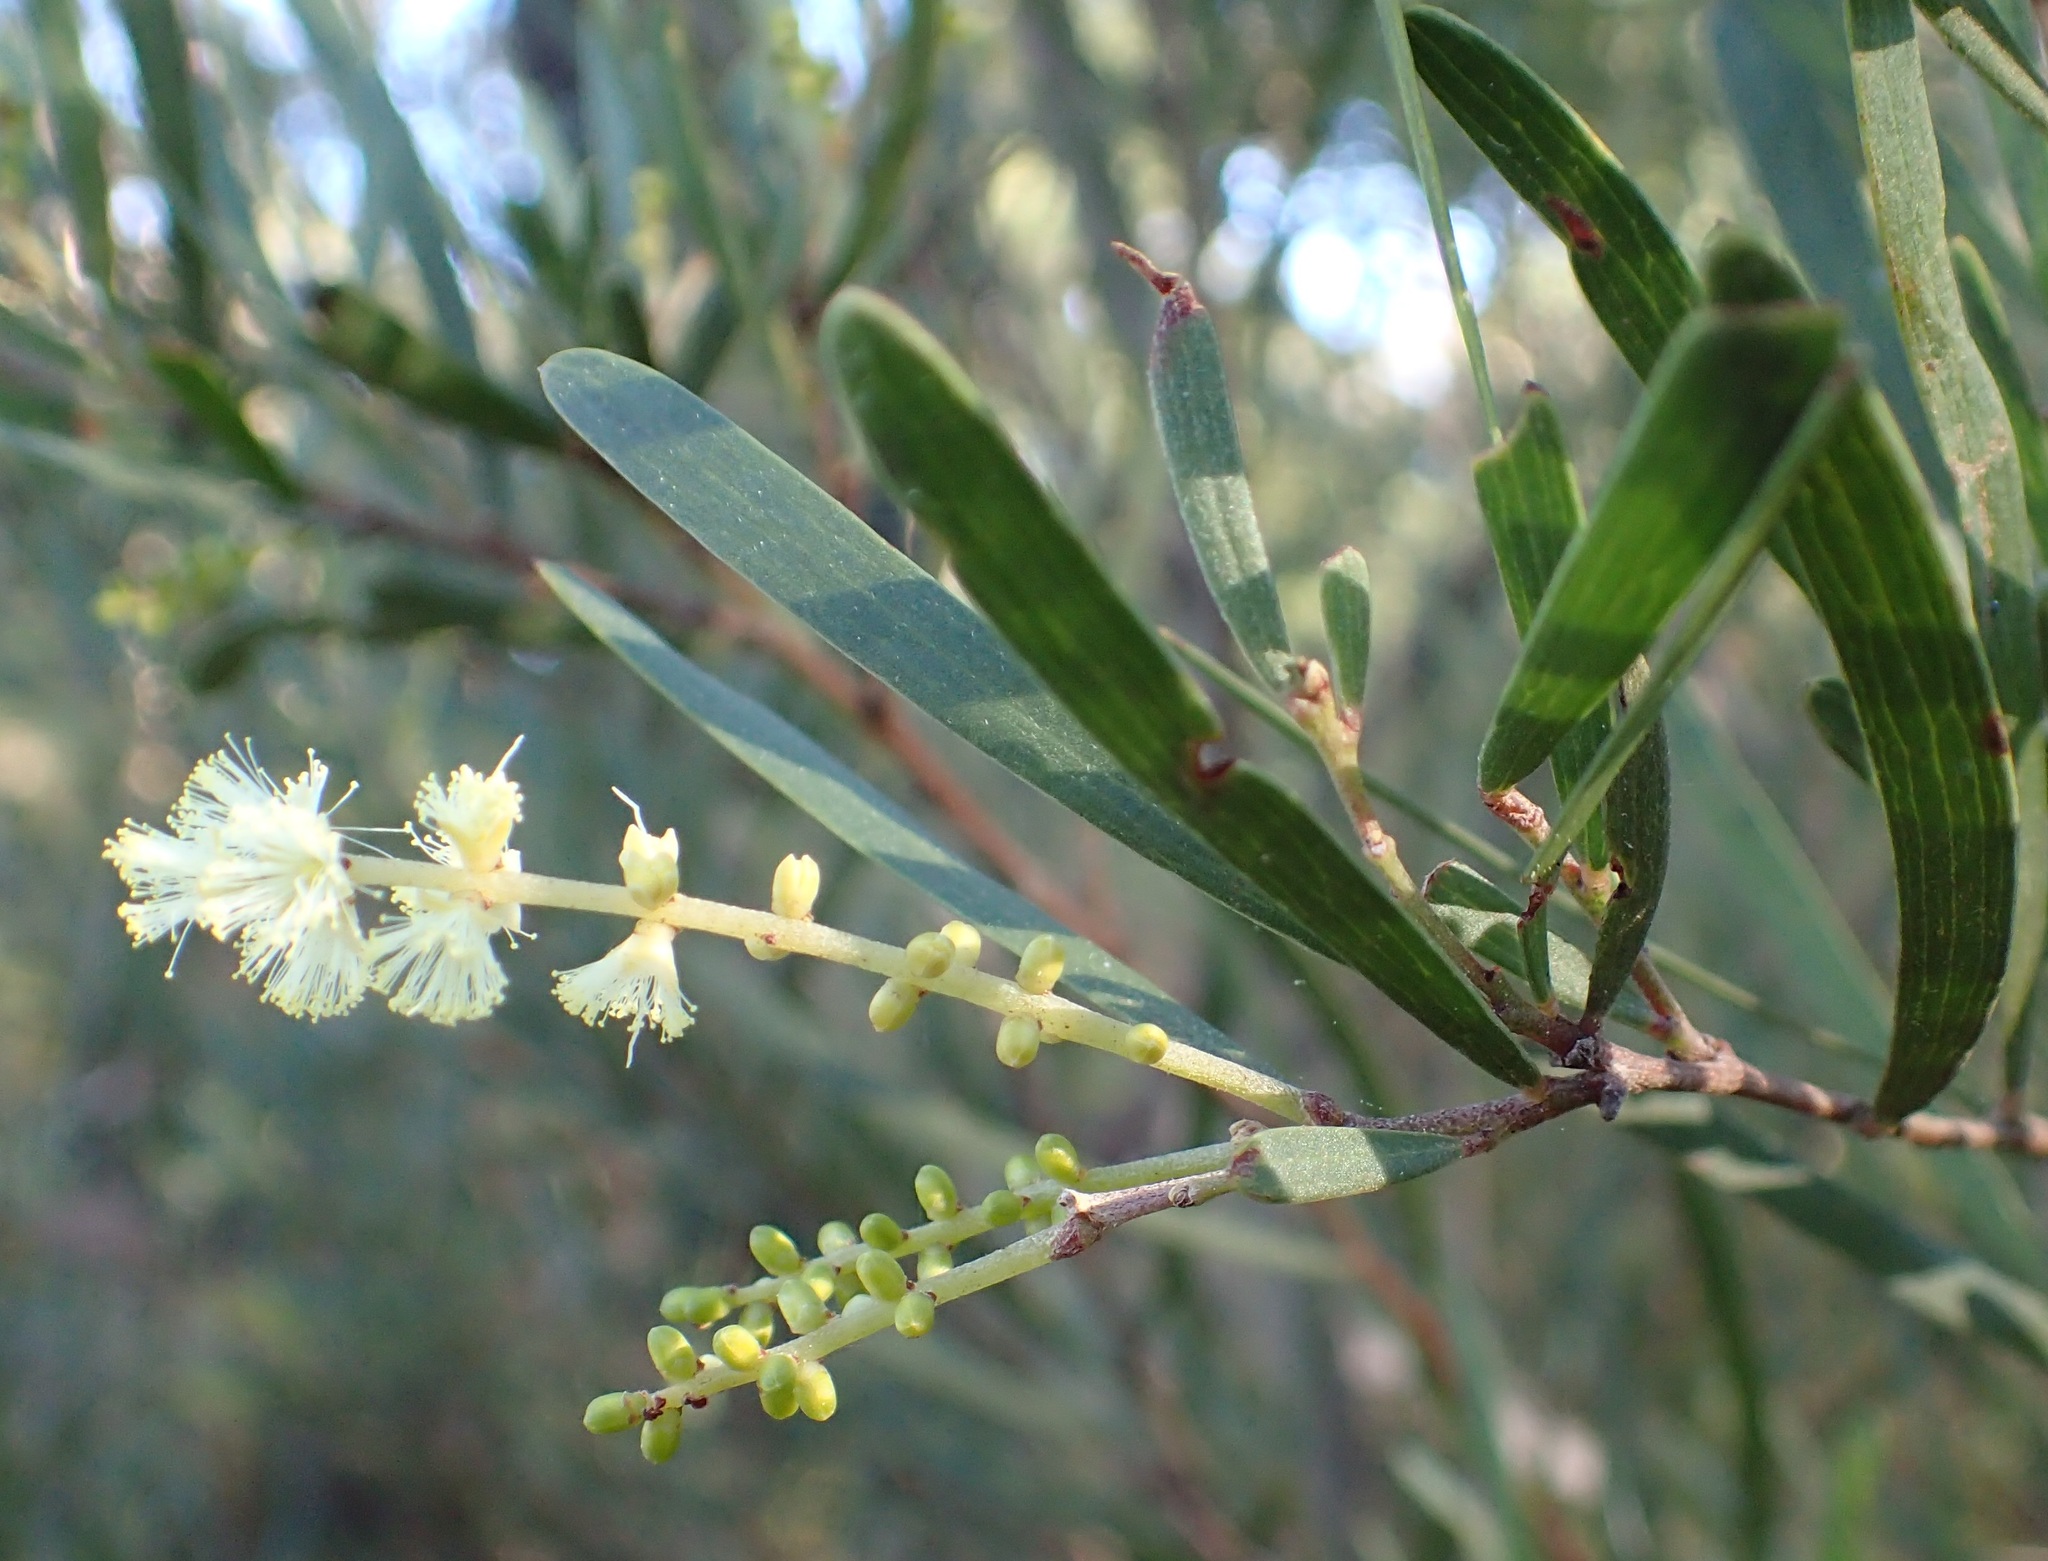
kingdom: Plantae
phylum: Tracheophyta
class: Magnoliopsida
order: Fabales
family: Fabaceae
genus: Acacia
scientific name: Acacia mucronata
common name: Variable sallow wattle
